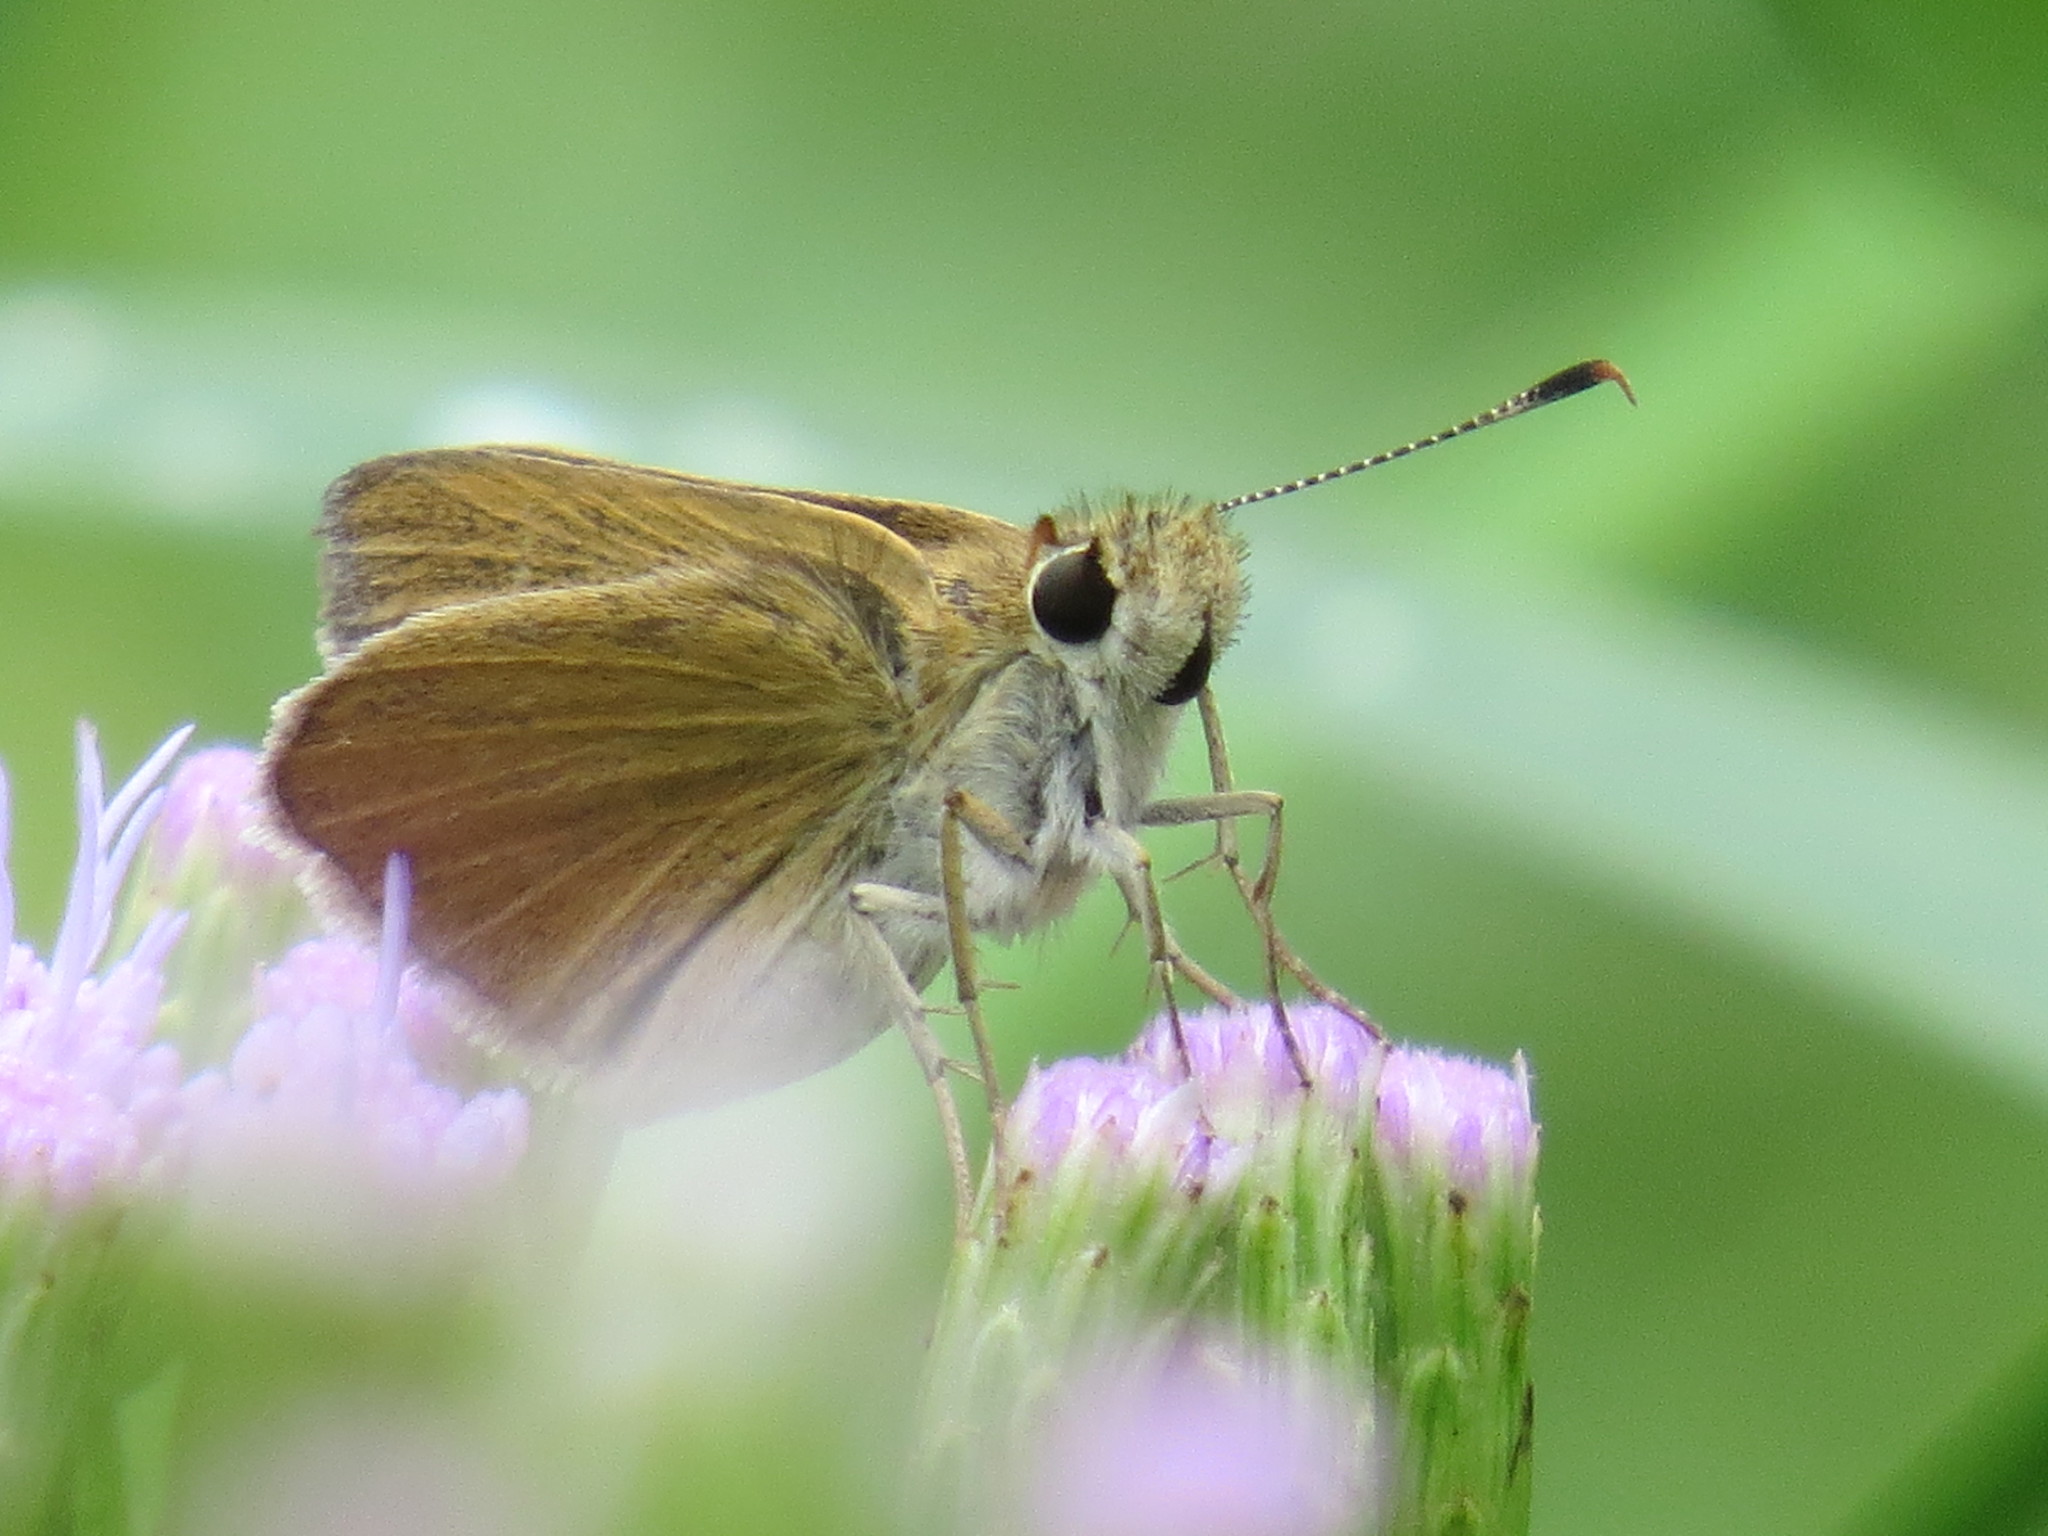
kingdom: Animalia
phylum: Arthropoda
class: Insecta
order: Lepidoptera
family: Hesperiidae
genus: Nastra
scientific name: Nastra julia
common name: Julia's skipper
